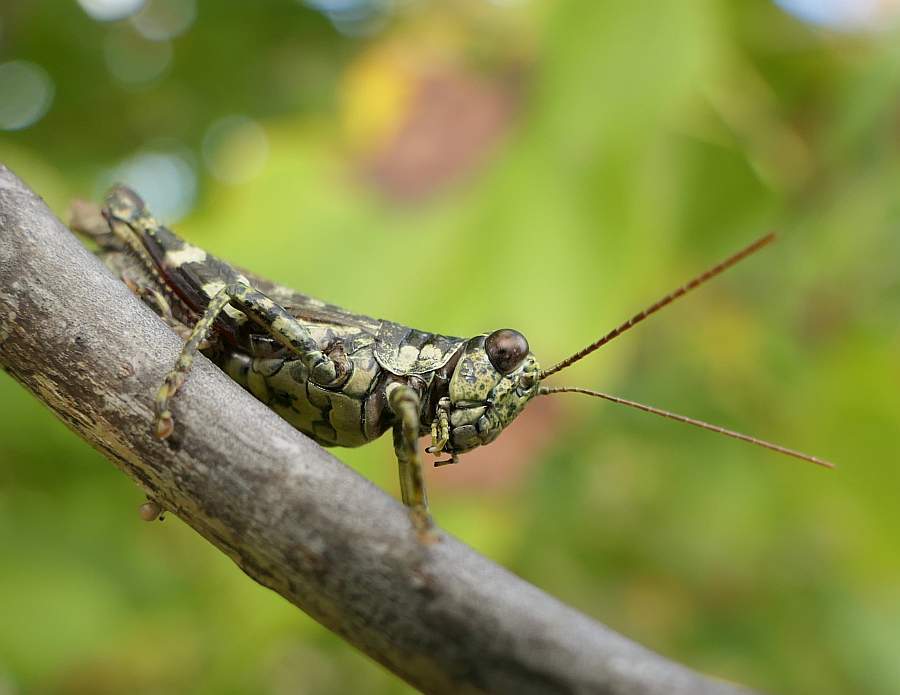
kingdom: Animalia
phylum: Arthropoda
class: Insecta
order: Orthoptera
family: Acrididae
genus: Melanoplus
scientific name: Melanoplus punctulatus
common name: Pine-tree spur-throat grasshopper
